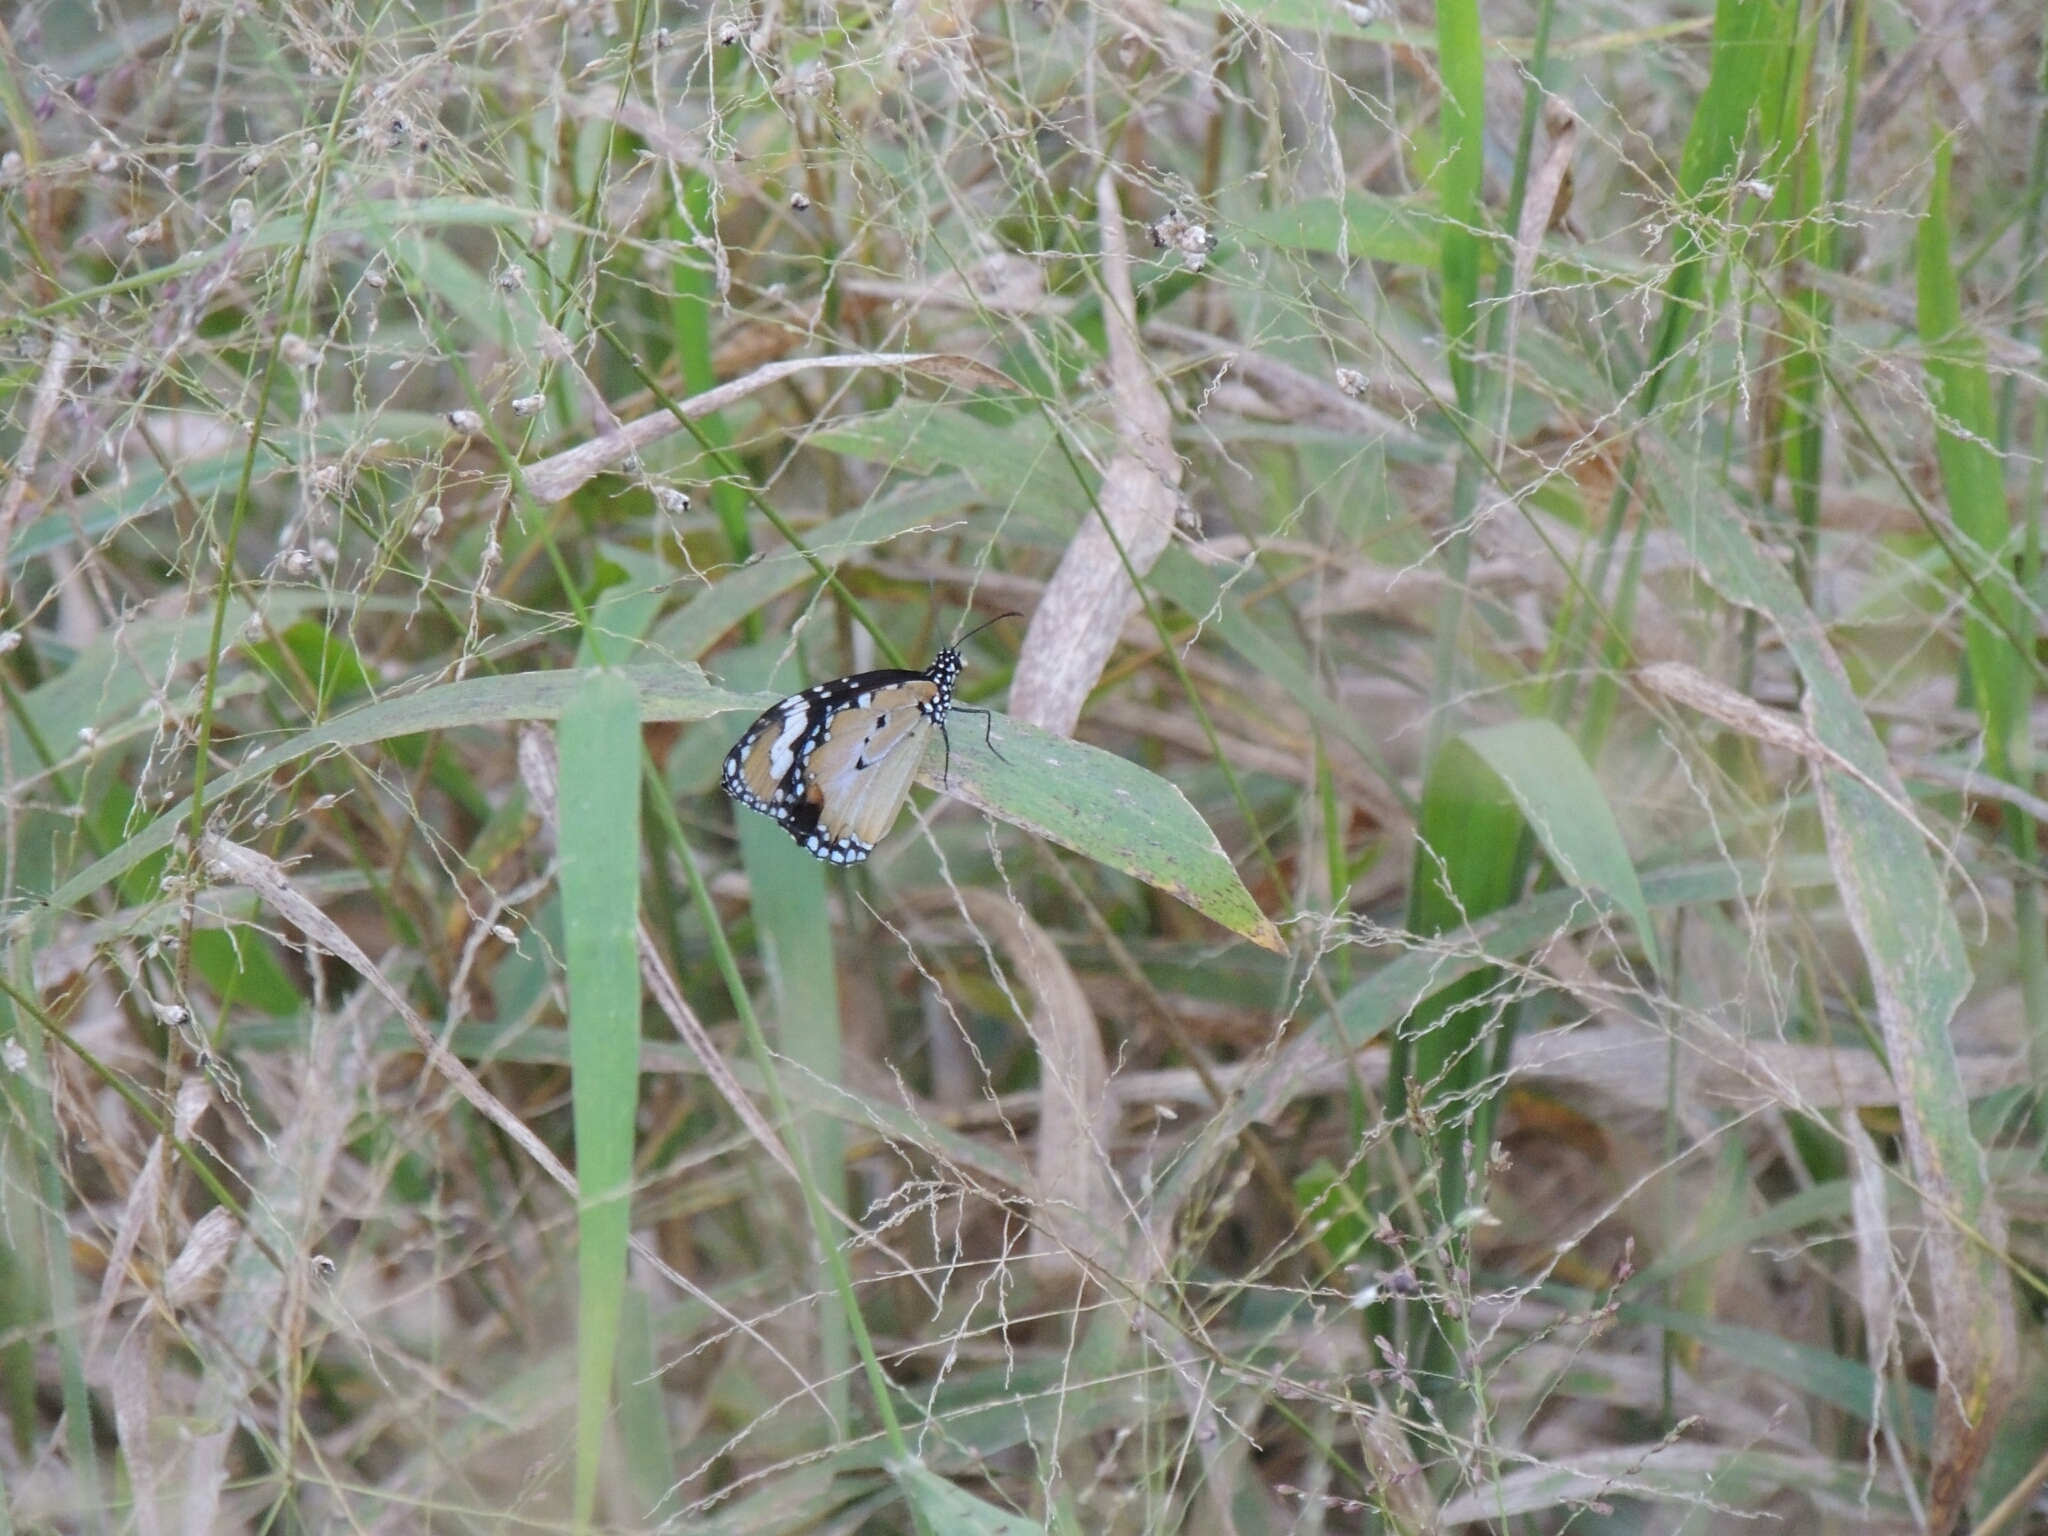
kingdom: Animalia
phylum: Arthropoda
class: Insecta
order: Lepidoptera
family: Nymphalidae
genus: Danaus
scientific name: Danaus chrysippus
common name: Plain tiger
